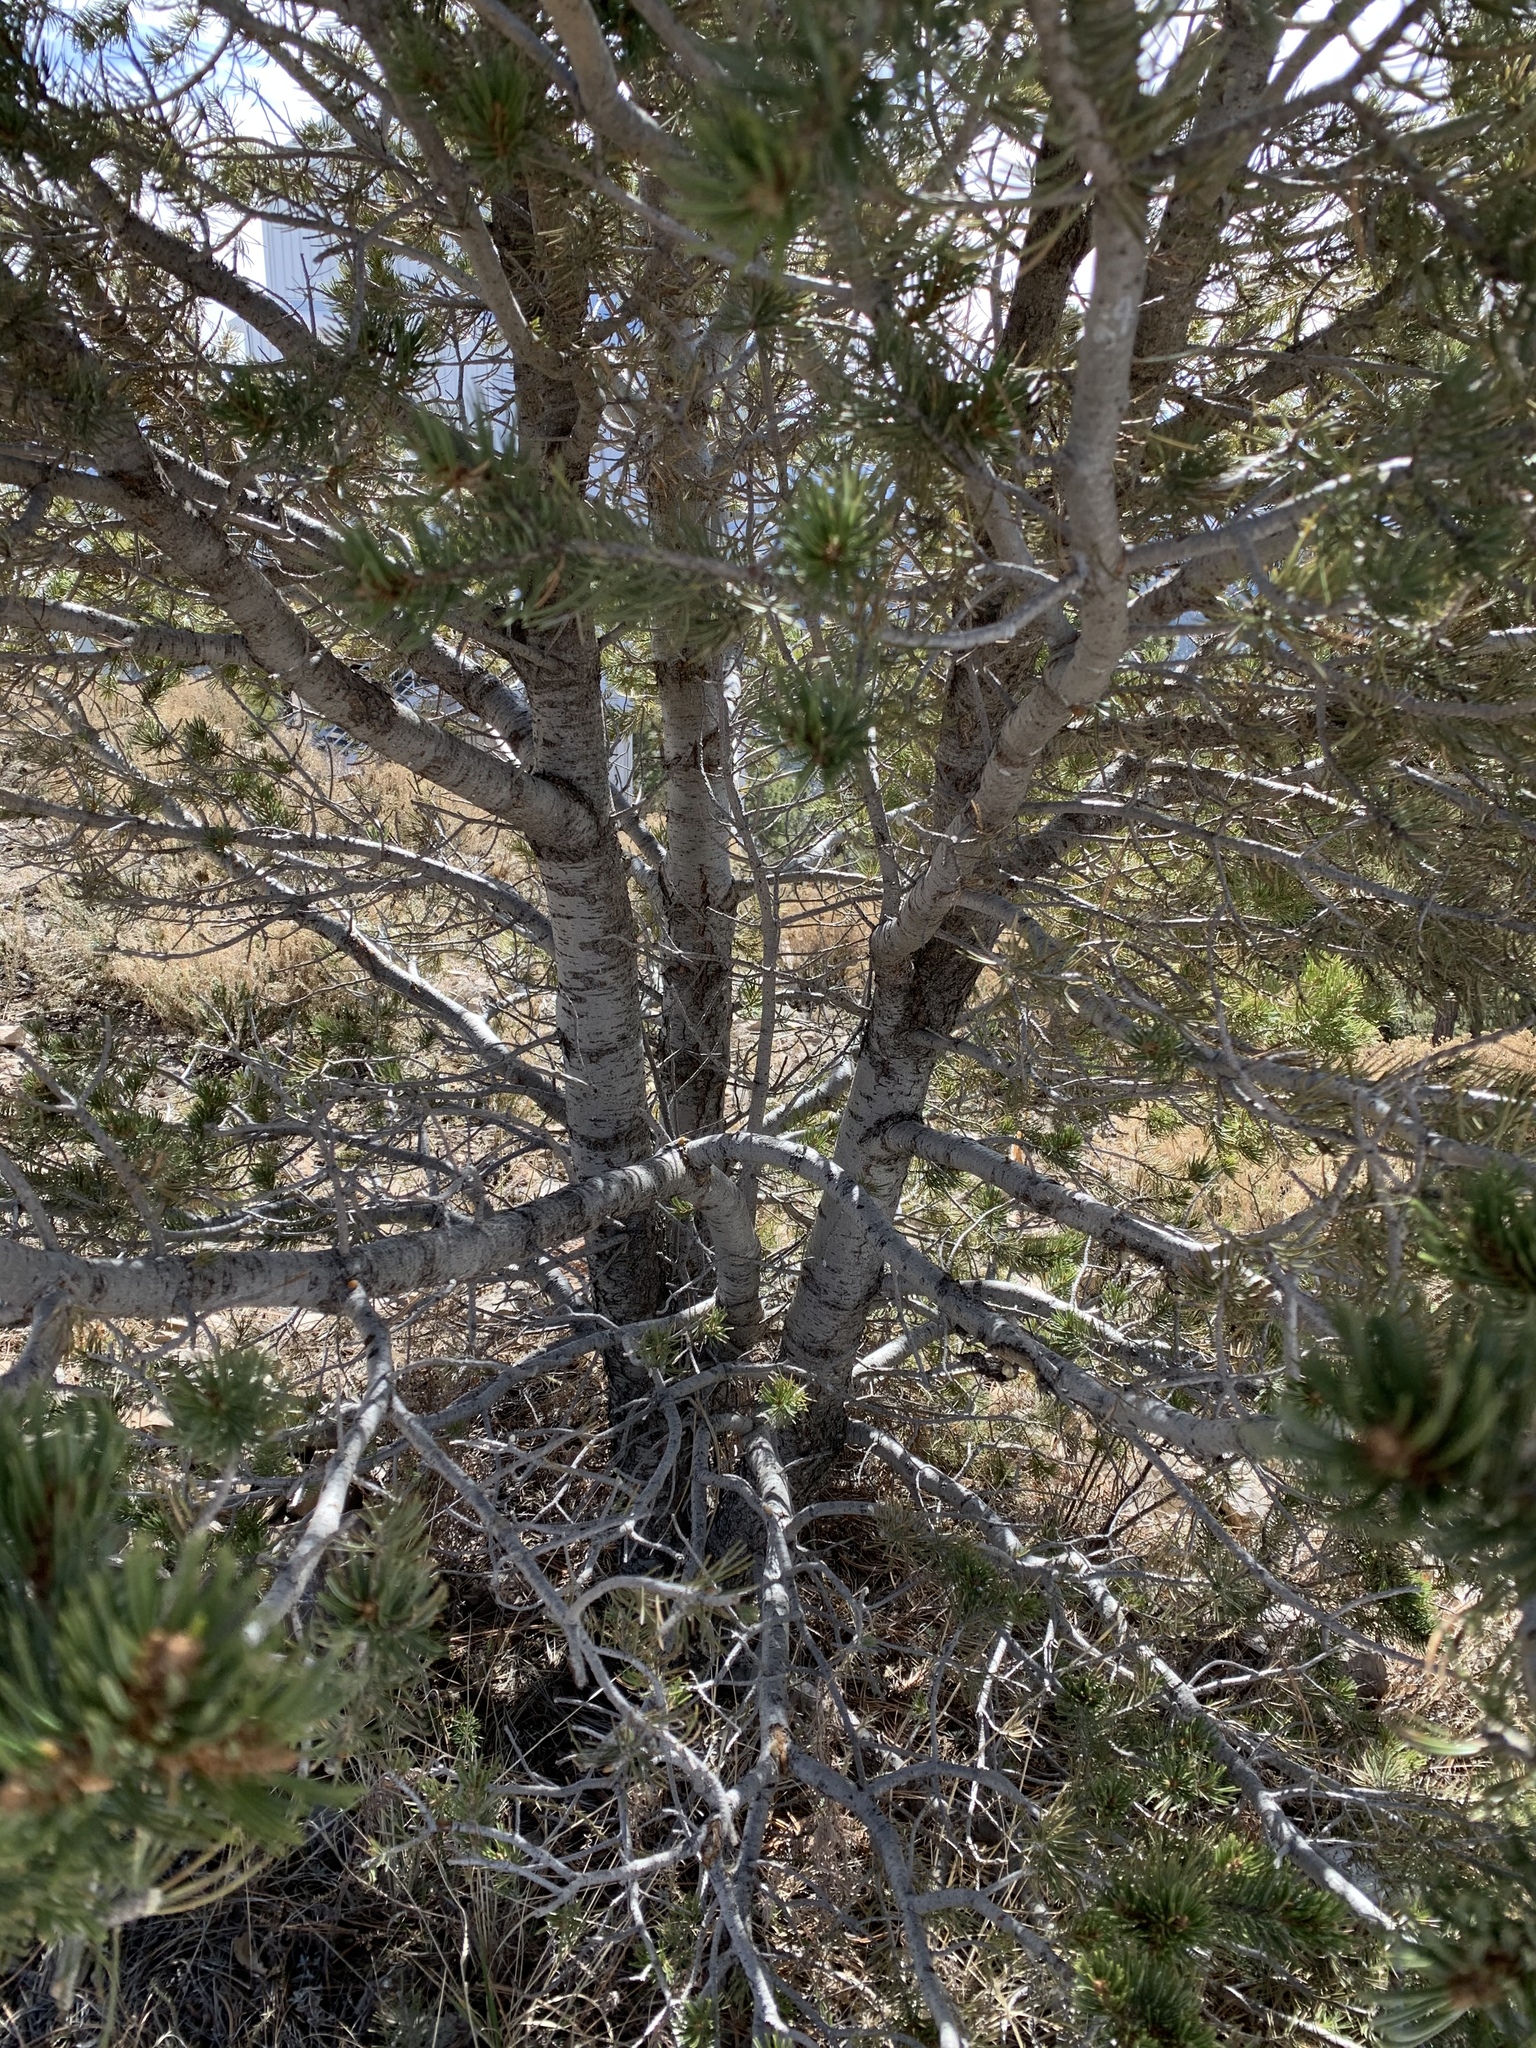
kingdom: Plantae
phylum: Tracheophyta
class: Pinopsida
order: Pinales
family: Pinaceae
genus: Pinus
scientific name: Pinus edulis
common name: Colorado pinyon
